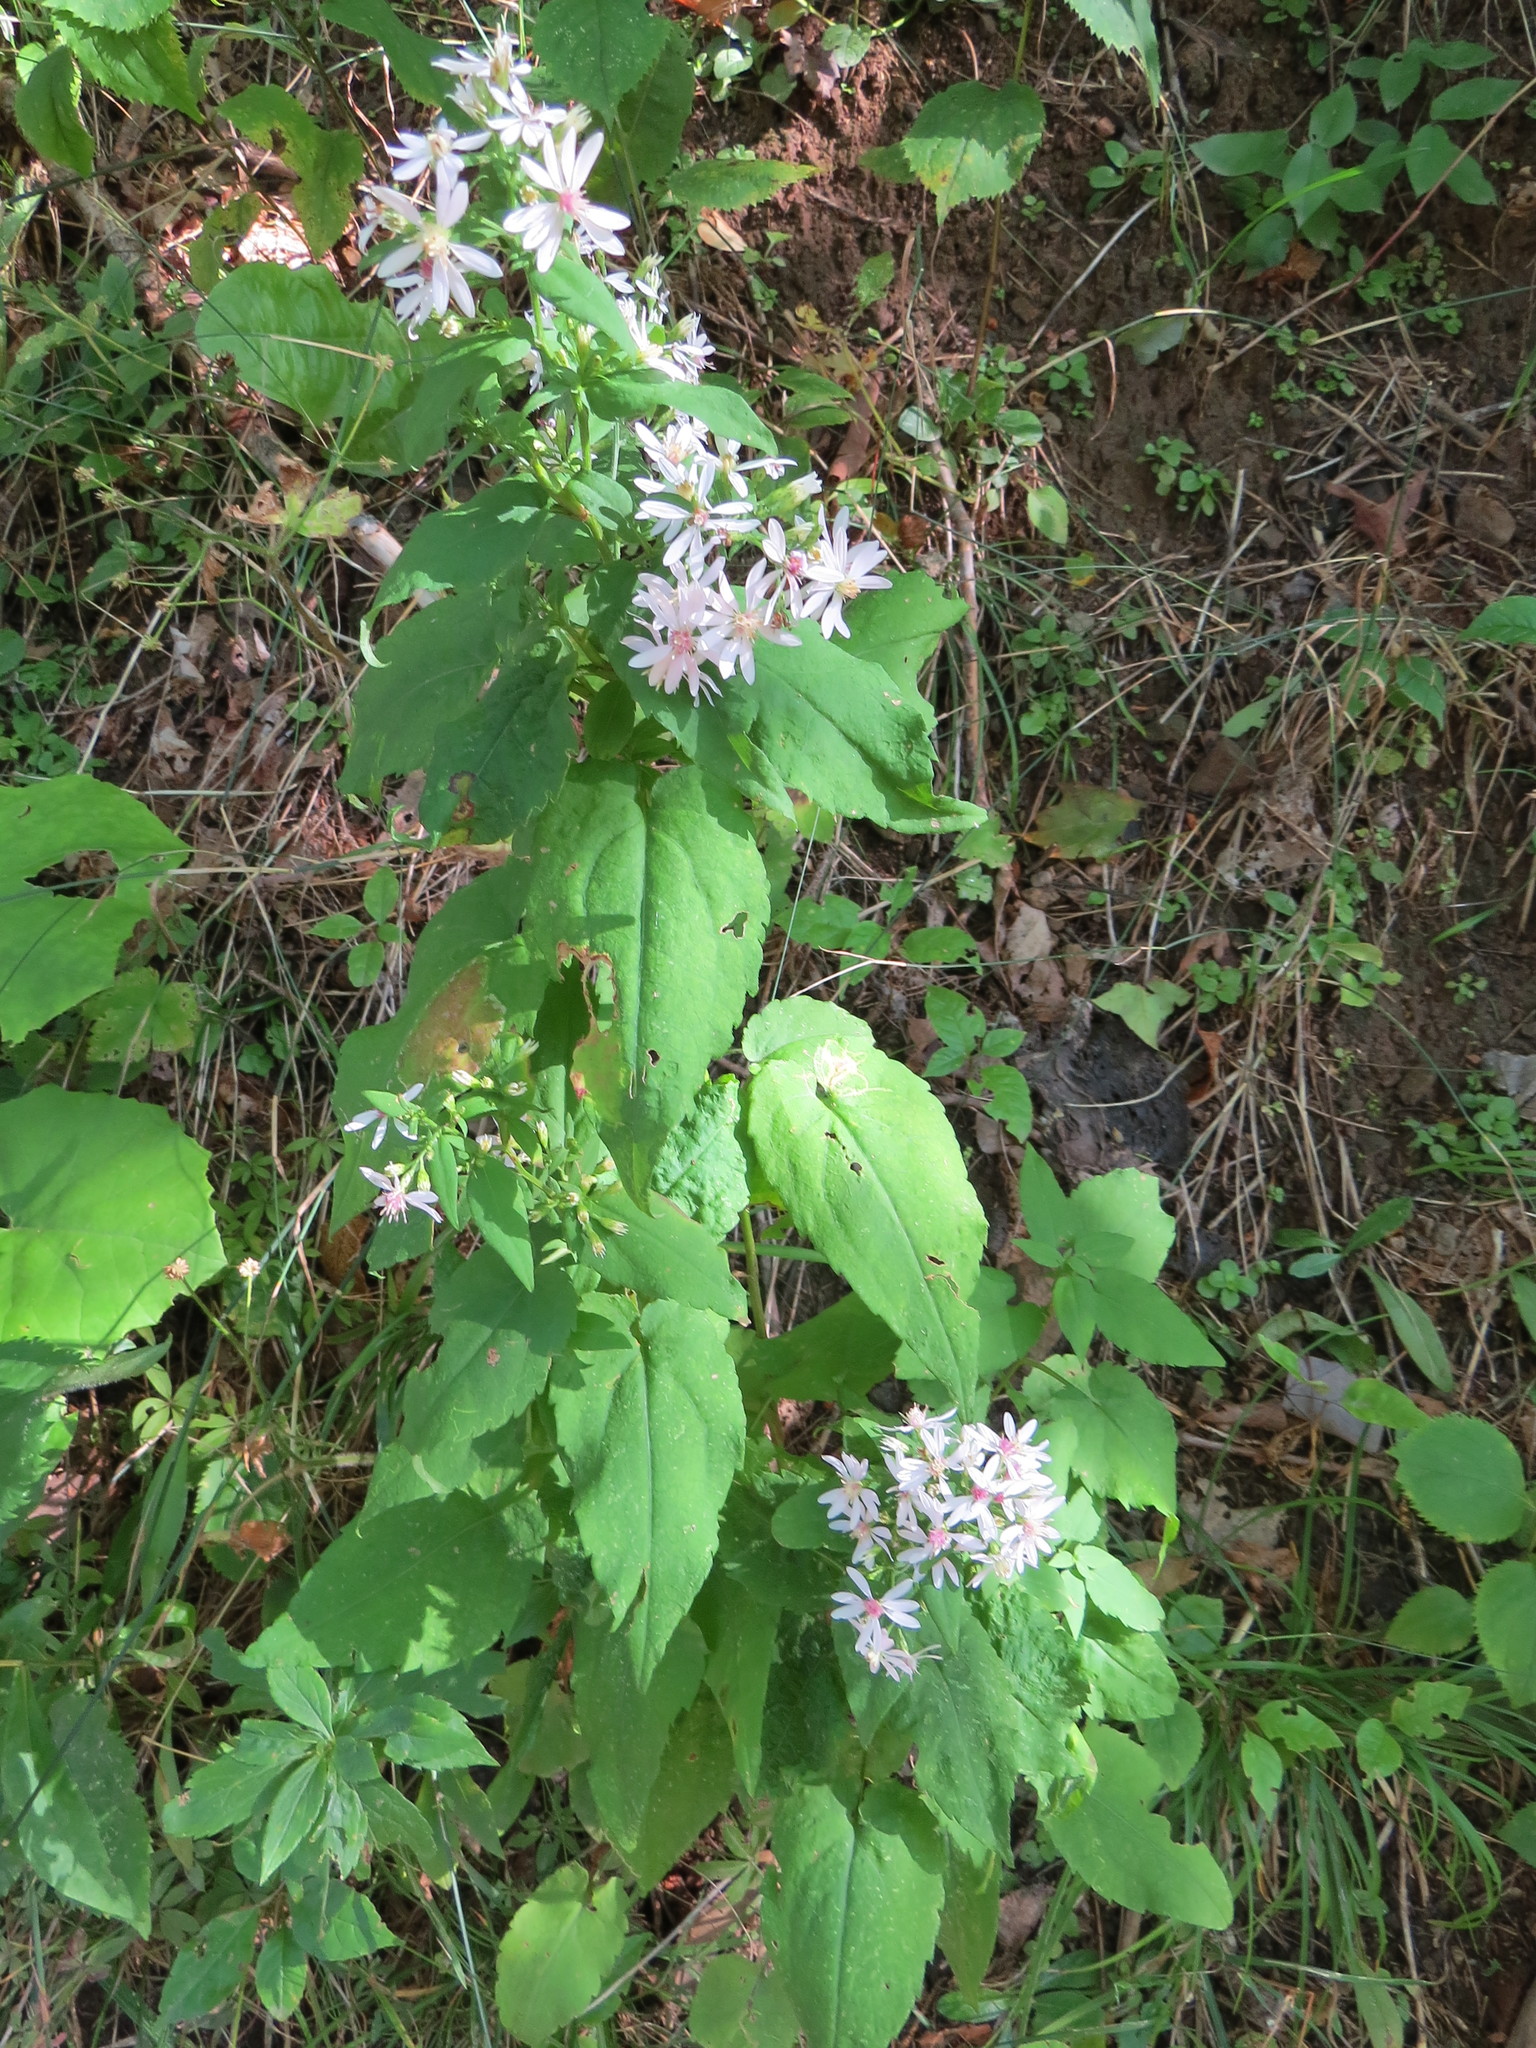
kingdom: Plantae
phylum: Tracheophyta
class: Magnoliopsida
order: Asterales
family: Asteraceae
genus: Symphyotrichum
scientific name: Symphyotrichum cordifolium
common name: Beeweed
